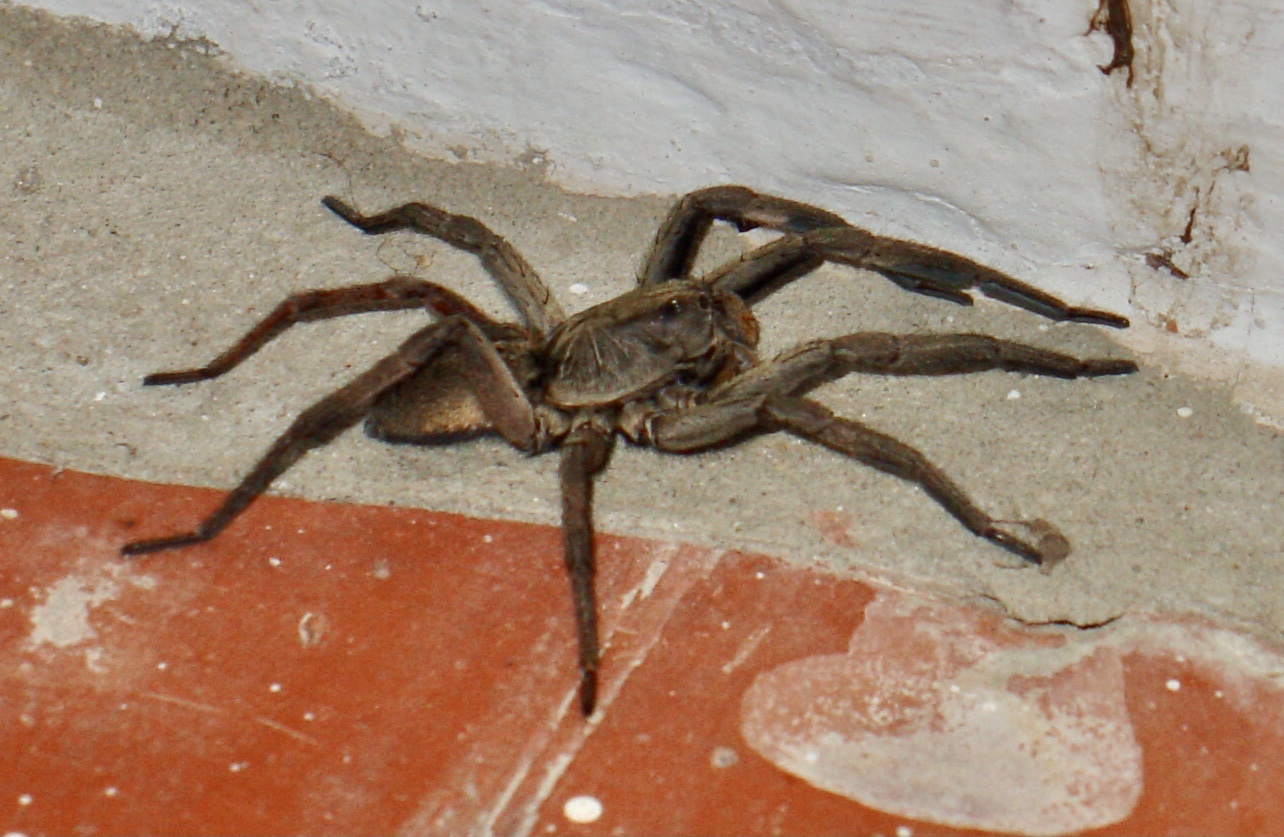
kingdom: Animalia
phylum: Arthropoda
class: Arachnida
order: Araneae
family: Lycosidae
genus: Lycosa
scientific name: Lycosa erythrognatha
